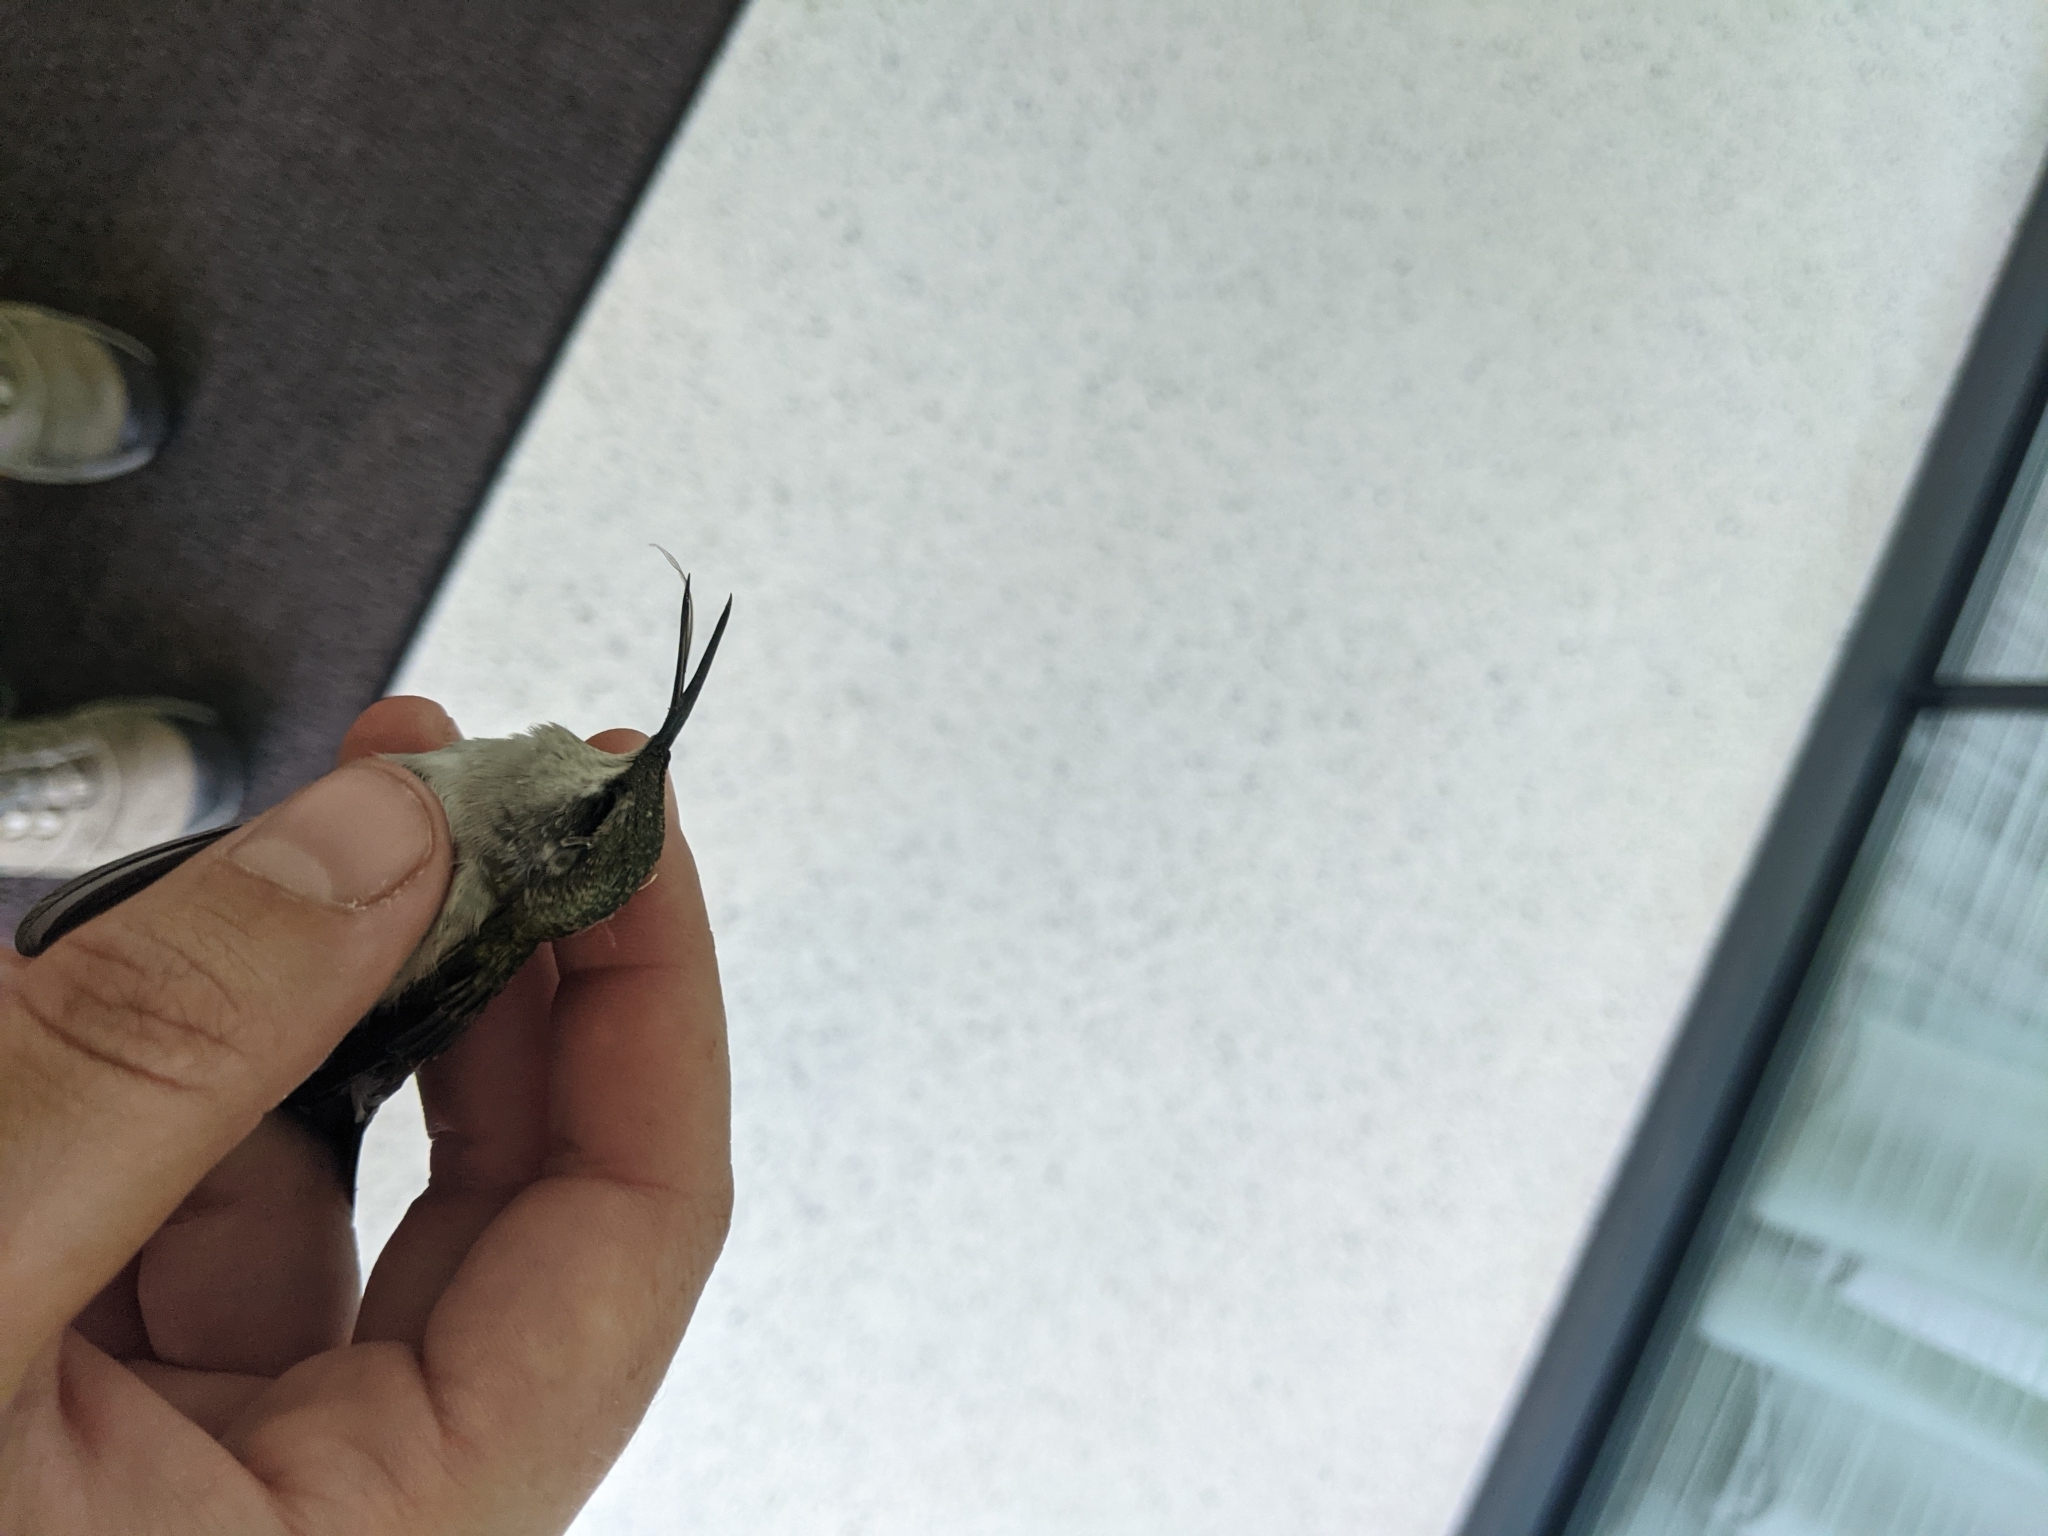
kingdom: Animalia
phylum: Chordata
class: Aves
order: Apodiformes
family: Trochilidae
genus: Archilochus
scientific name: Archilochus colubris
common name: Ruby-throated hummingbird
